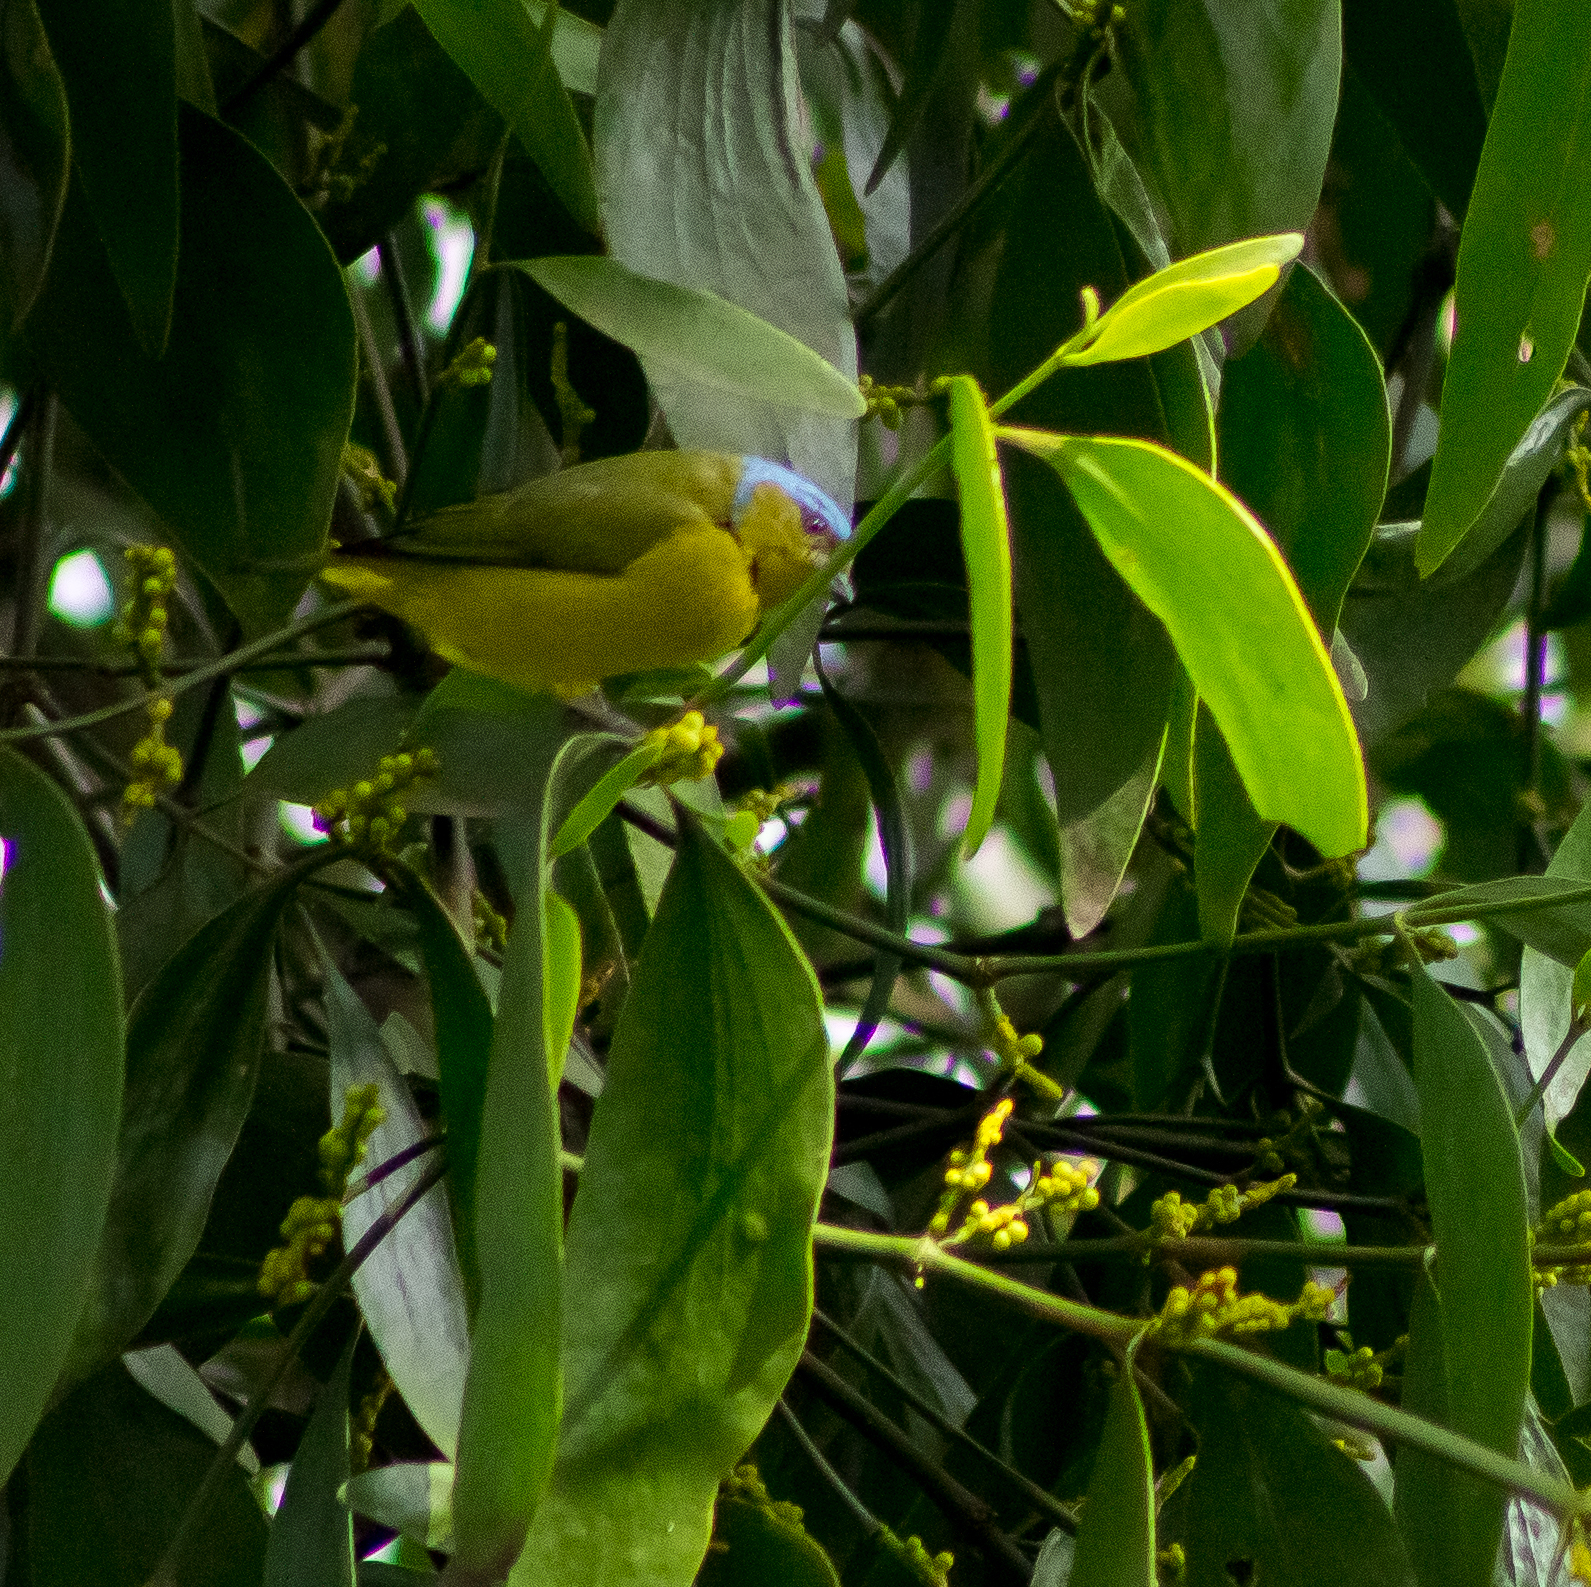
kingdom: Animalia
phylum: Chordata
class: Aves
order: Passeriformes
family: Fringillidae
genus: Euphonia
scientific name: Euphonia cyanocephala
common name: Golden-rumped euphonia
